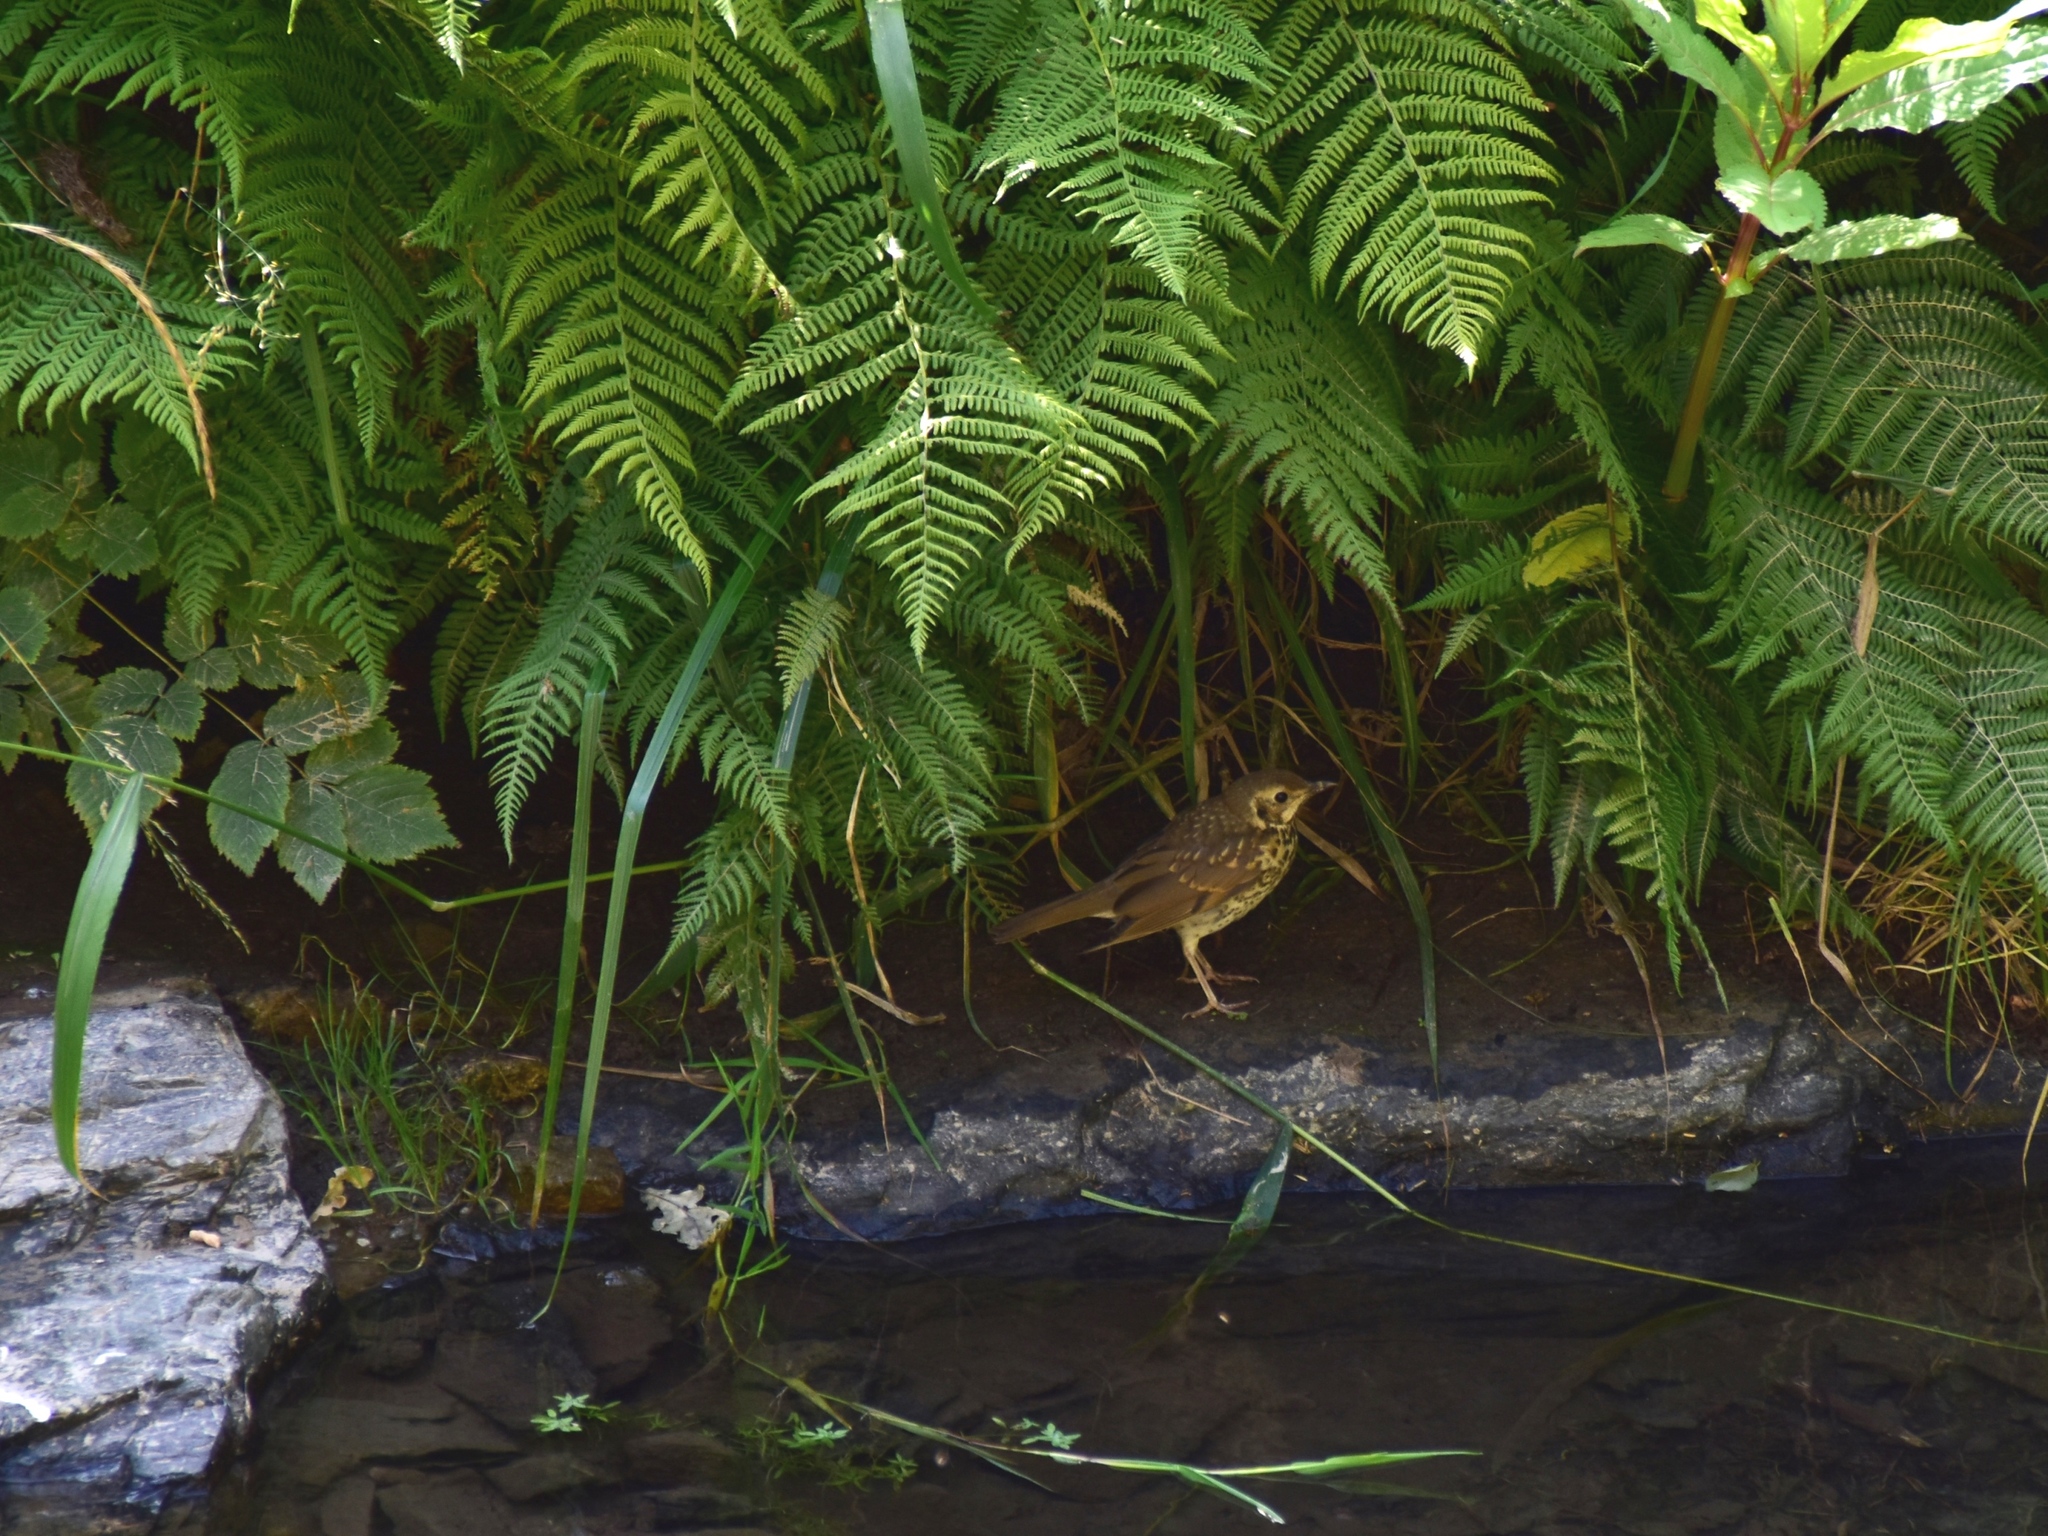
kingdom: Animalia
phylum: Chordata
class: Aves
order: Passeriformes
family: Turdidae
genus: Turdus
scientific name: Turdus philomelos
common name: Song thrush
